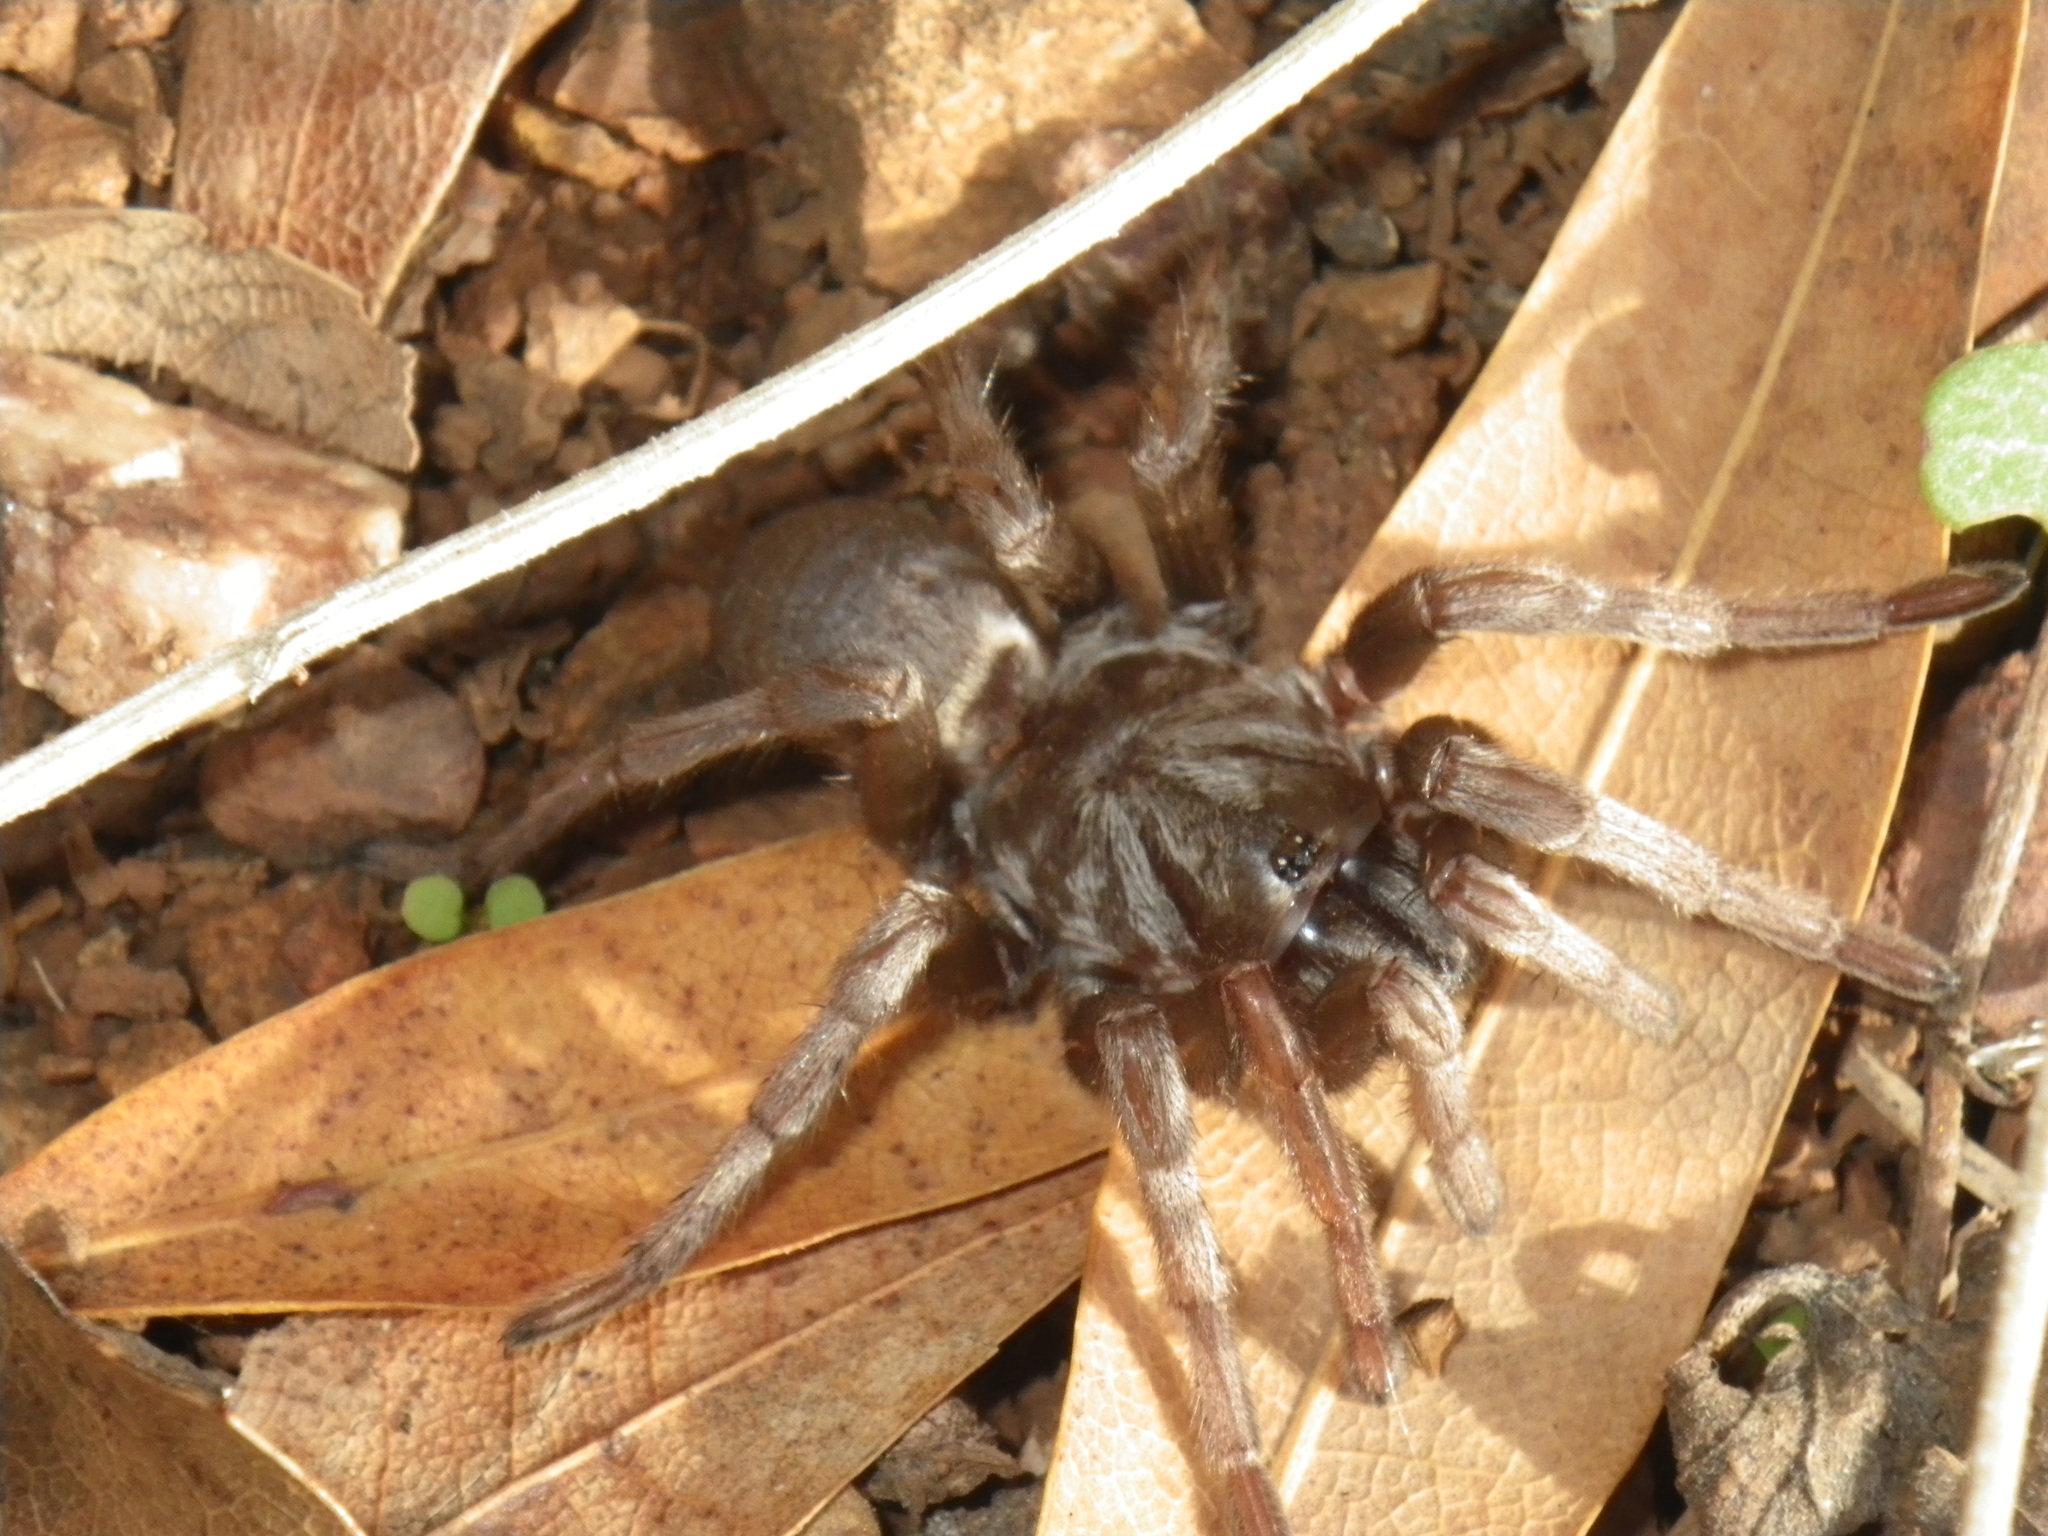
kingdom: Animalia
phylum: Arthropoda
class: Arachnida
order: Araneae
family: Nemesiidae
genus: Calisoga
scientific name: Calisoga longitarsis
